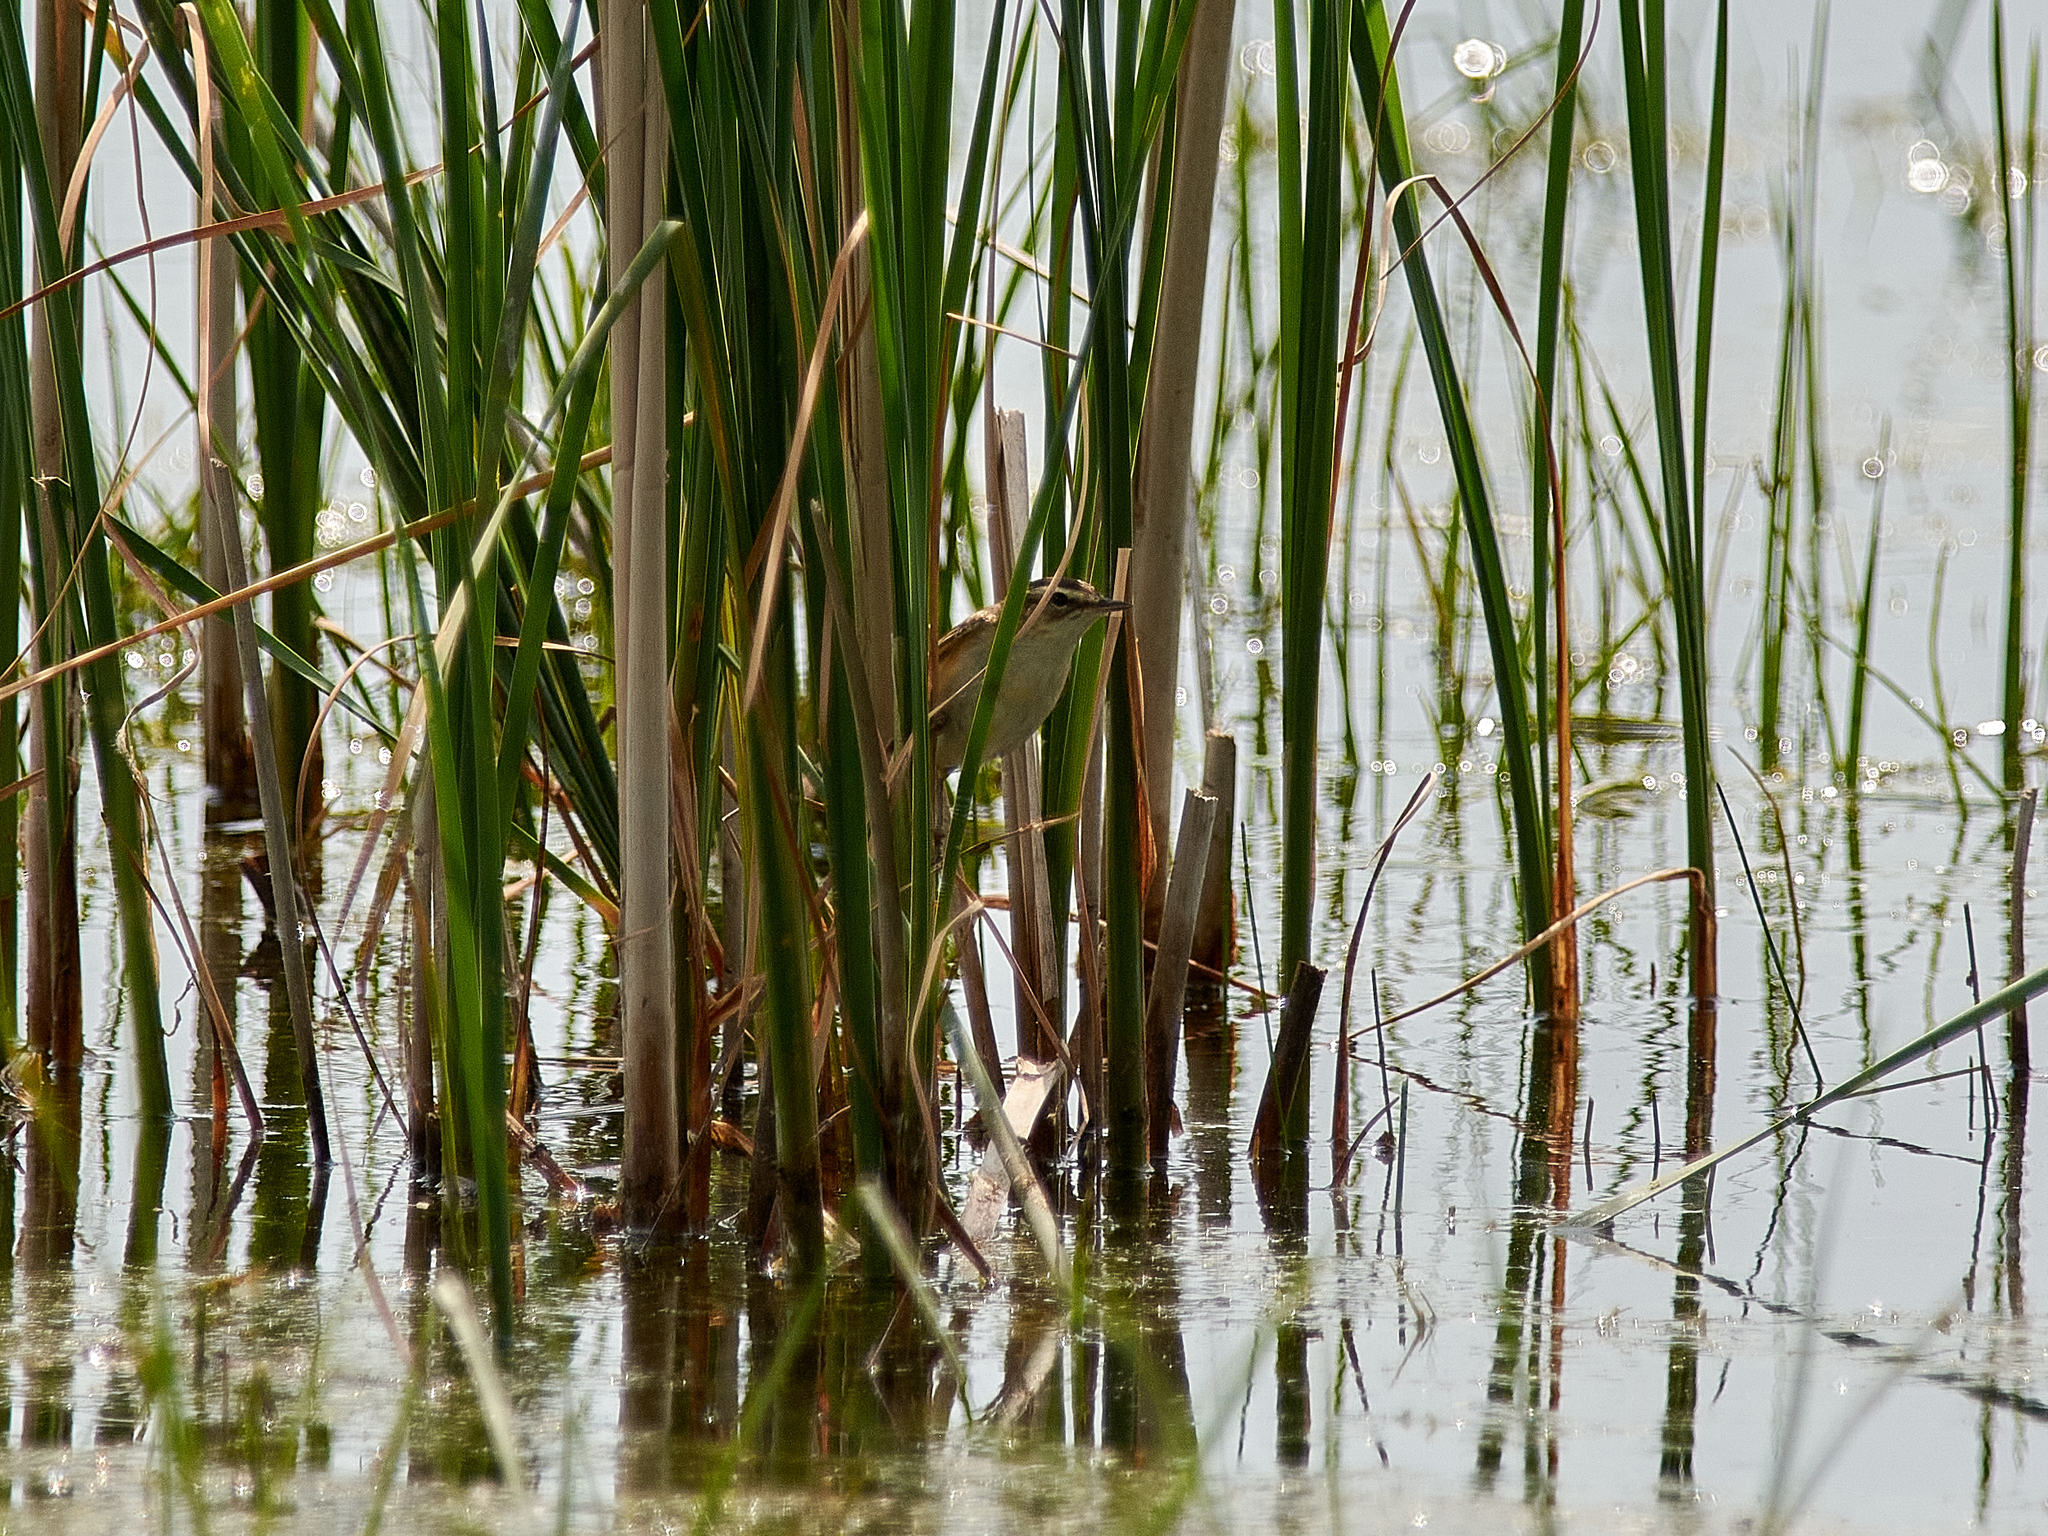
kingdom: Animalia
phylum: Chordata
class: Aves
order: Passeriformes
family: Acrocephalidae
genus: Acrocephalus
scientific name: Acrocephalus schoenobaenus
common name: Sedge warbler
